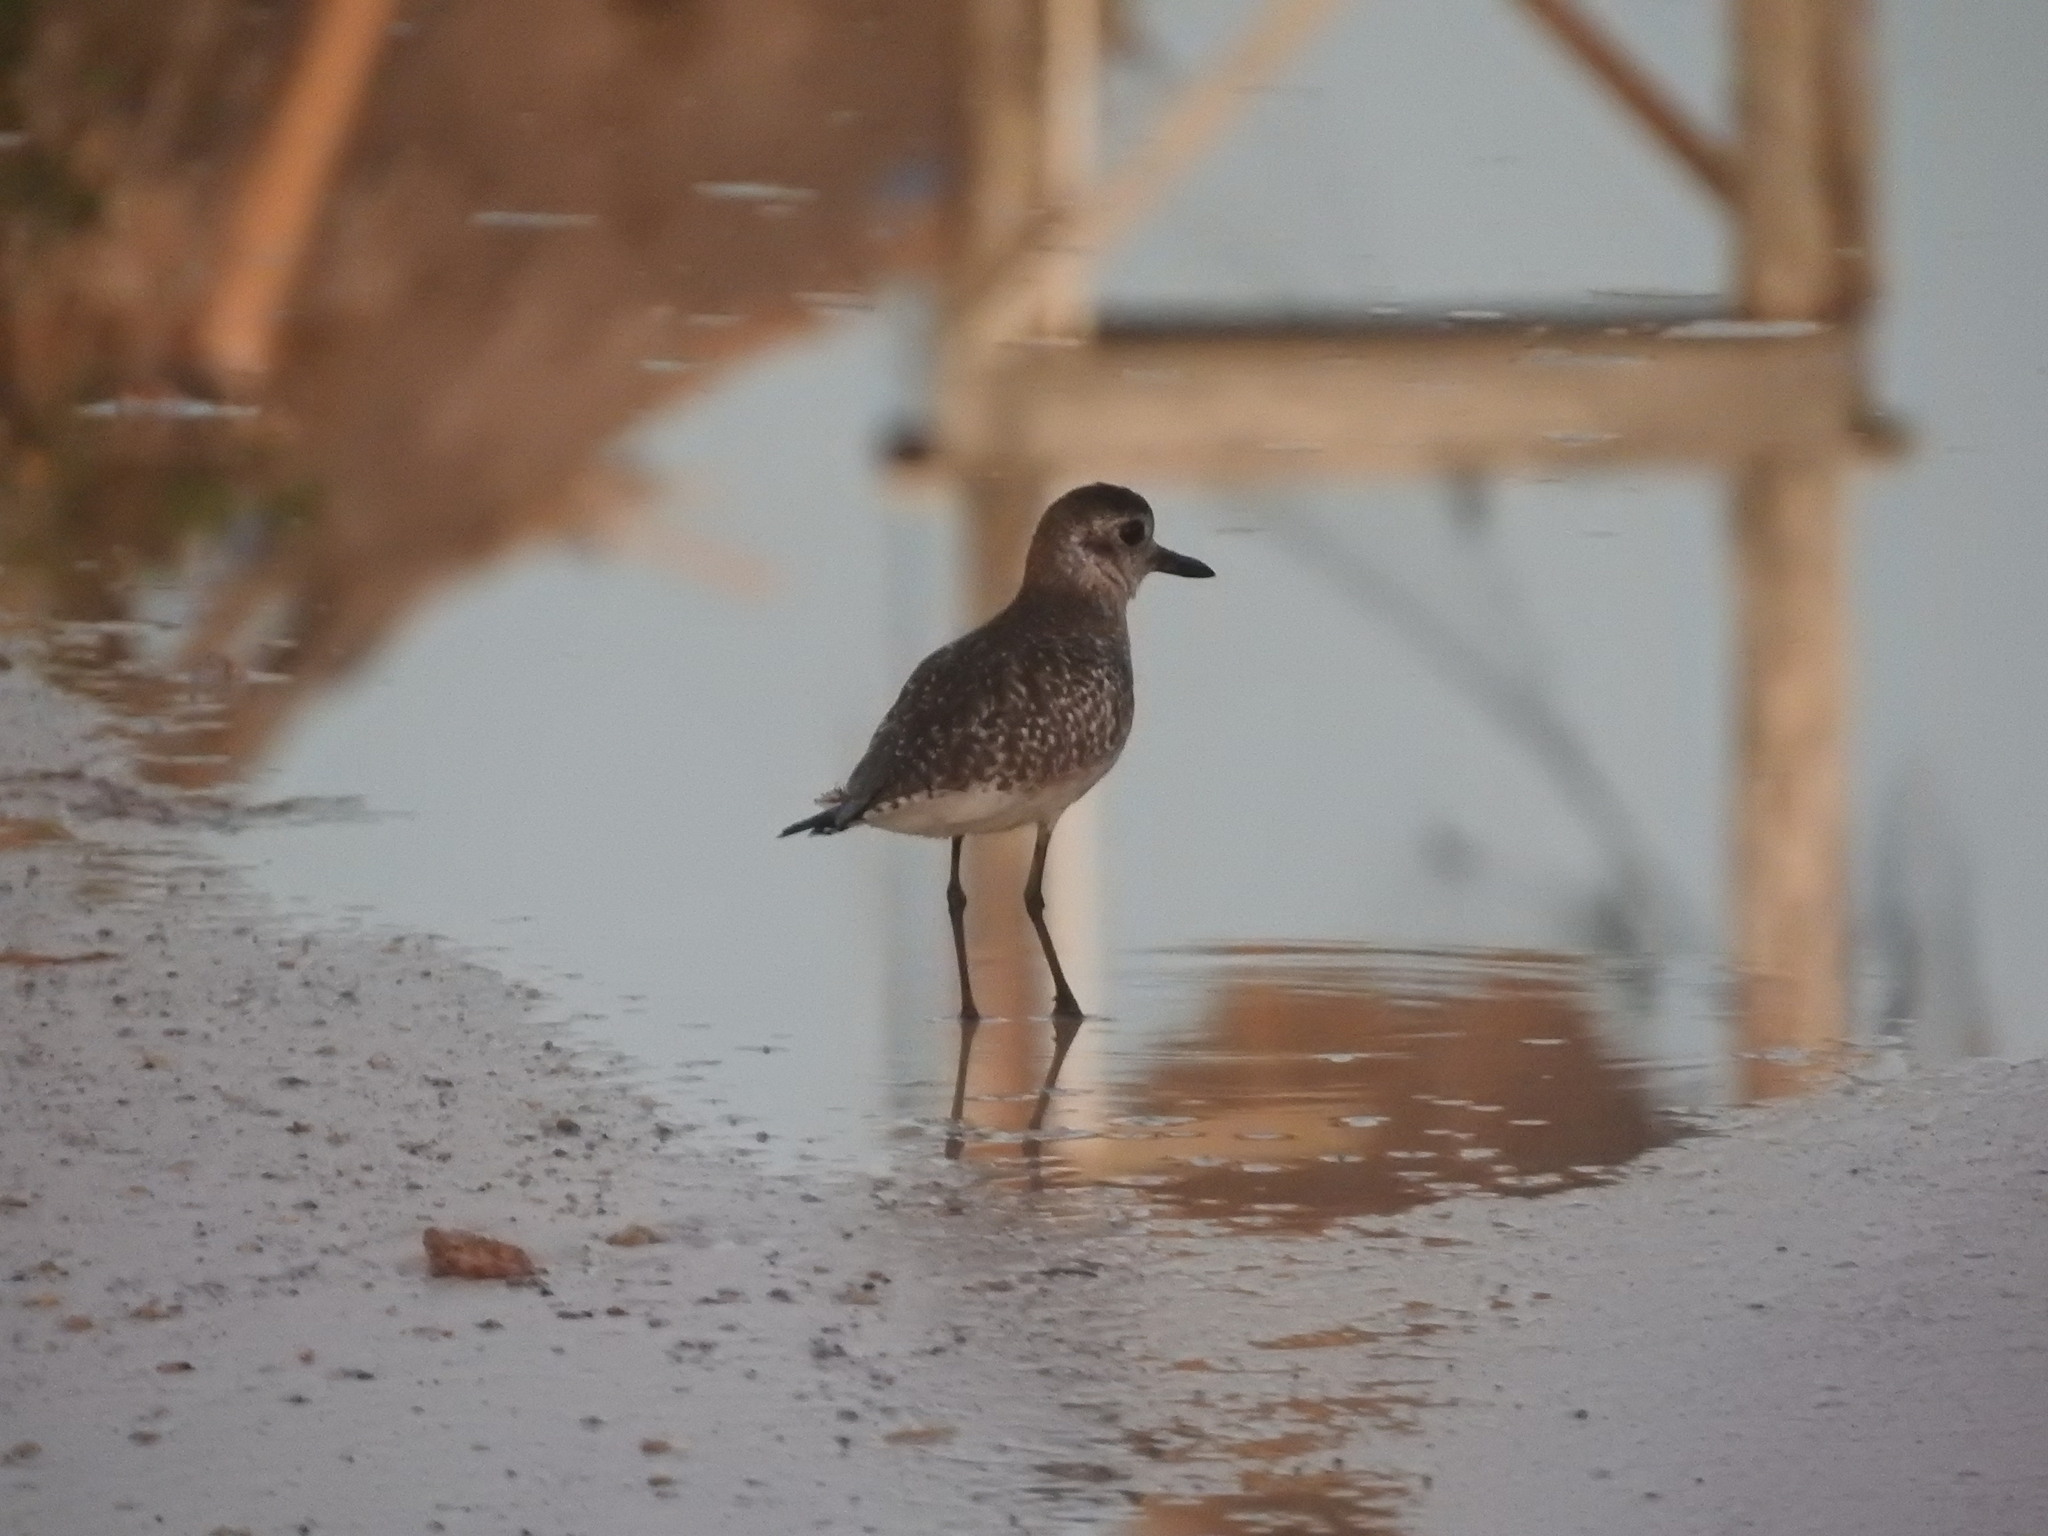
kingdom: Animalia
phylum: Chordata
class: Aves
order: Charadriiformes
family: Charadriidae
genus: Pluvialis
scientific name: Pluvialis squatarola
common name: Grey plover
